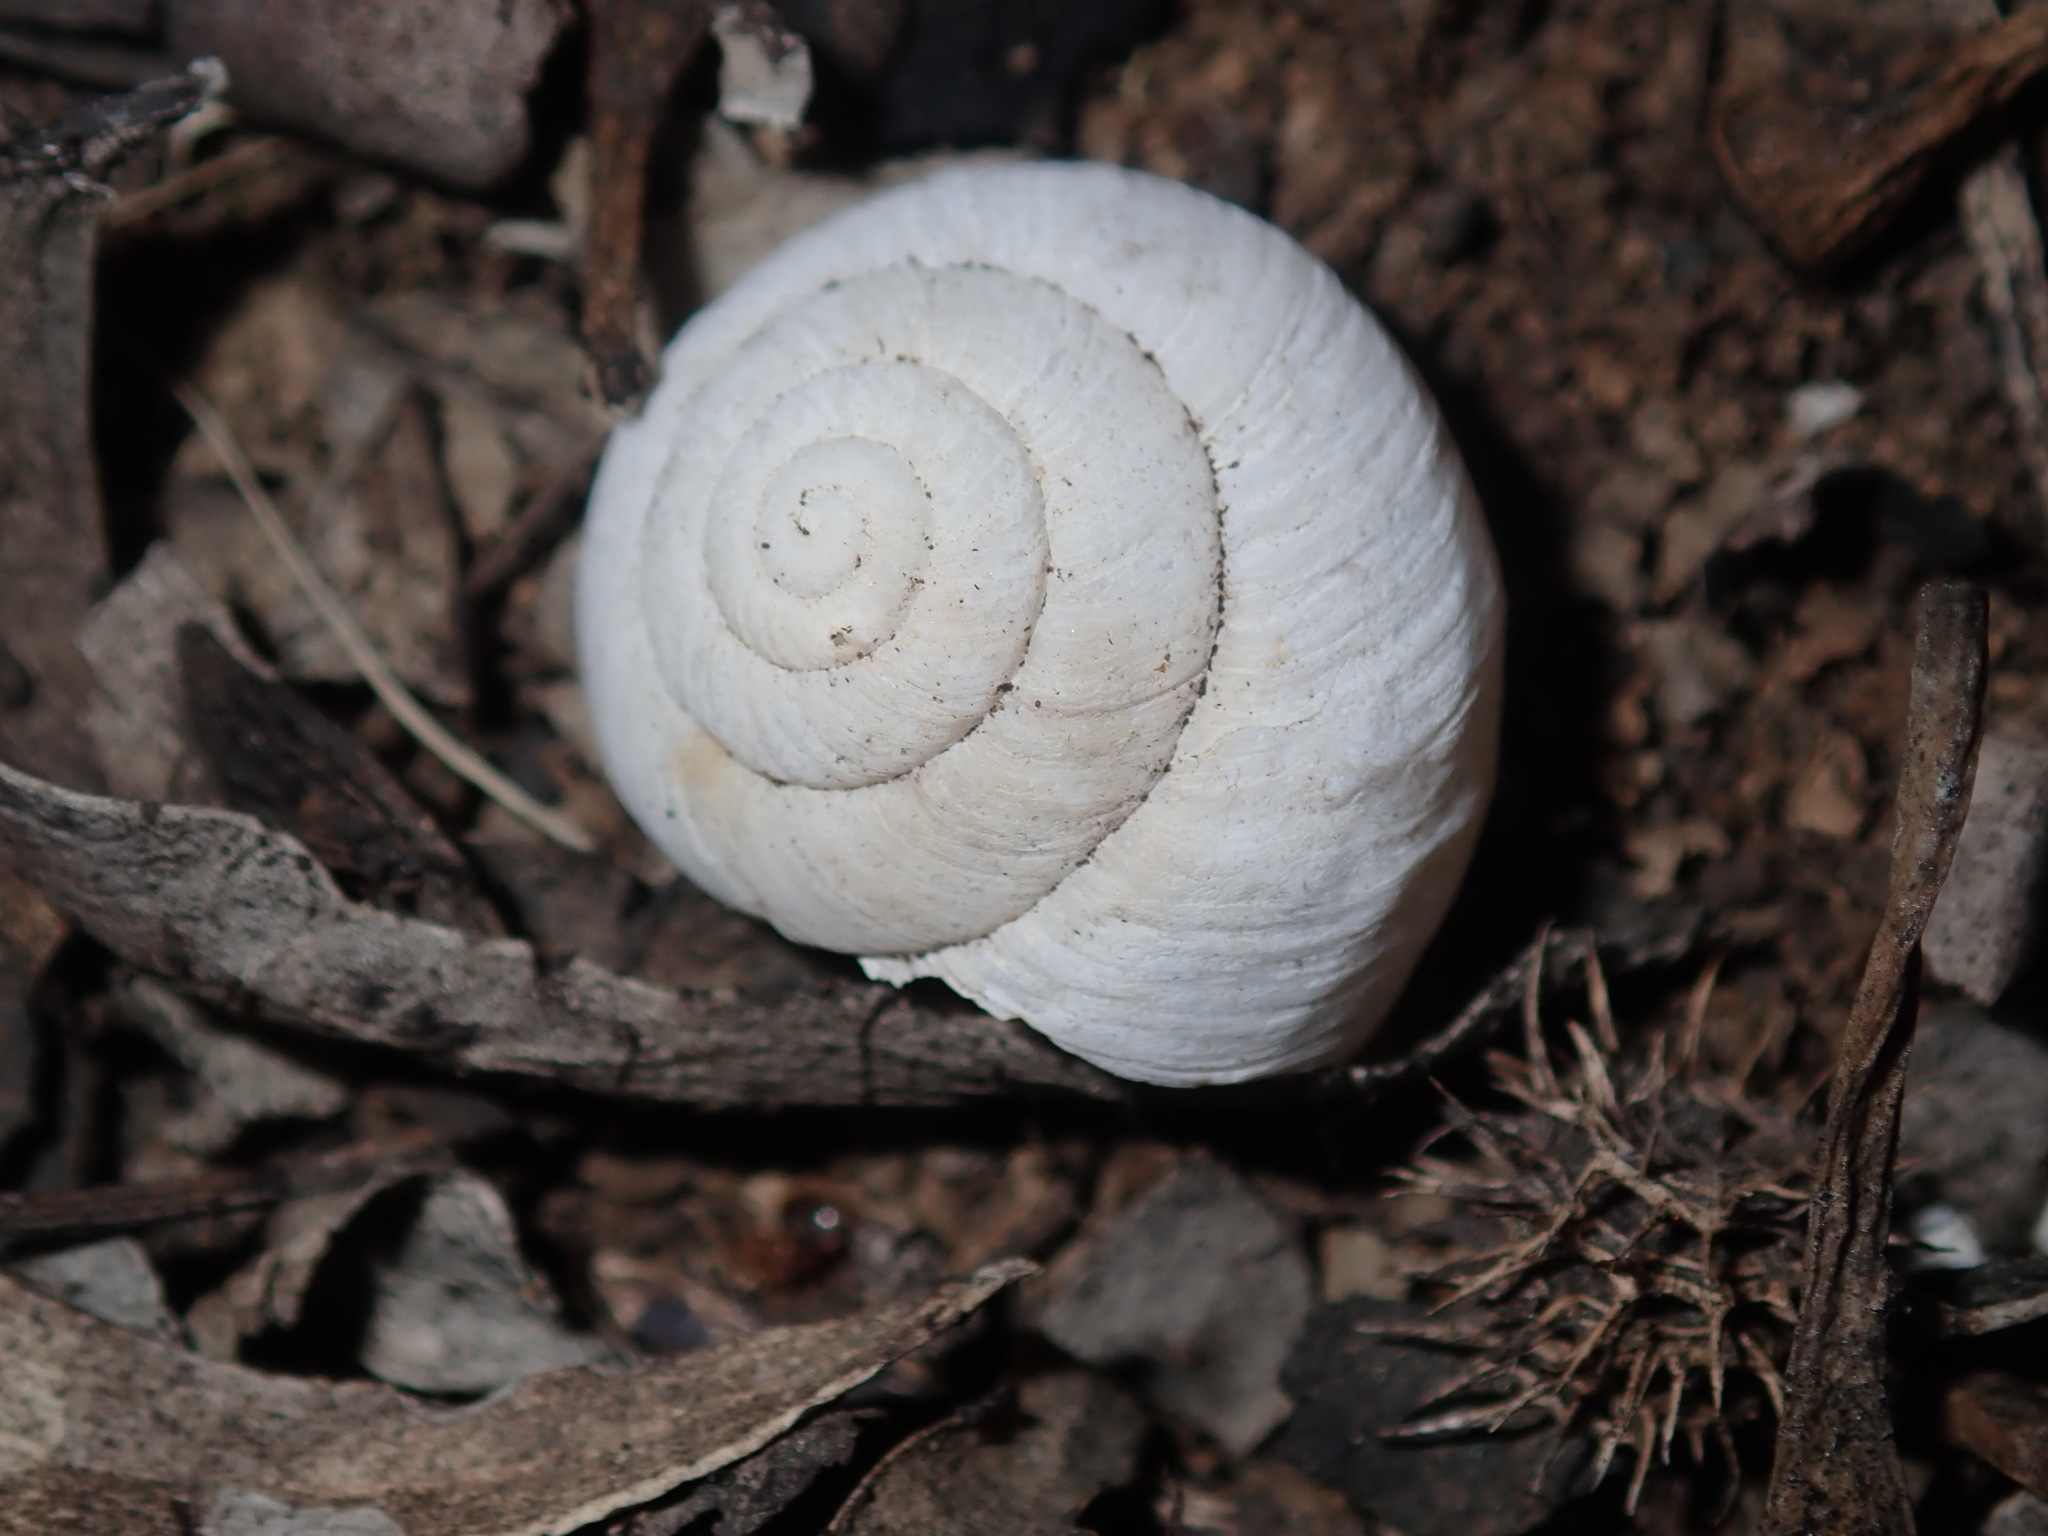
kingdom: Animalia
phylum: Mollusca
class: Gastropoda
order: Stylommatophora
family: Camaenidae
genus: Sauroconcha
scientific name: Sauroconcha sheai
